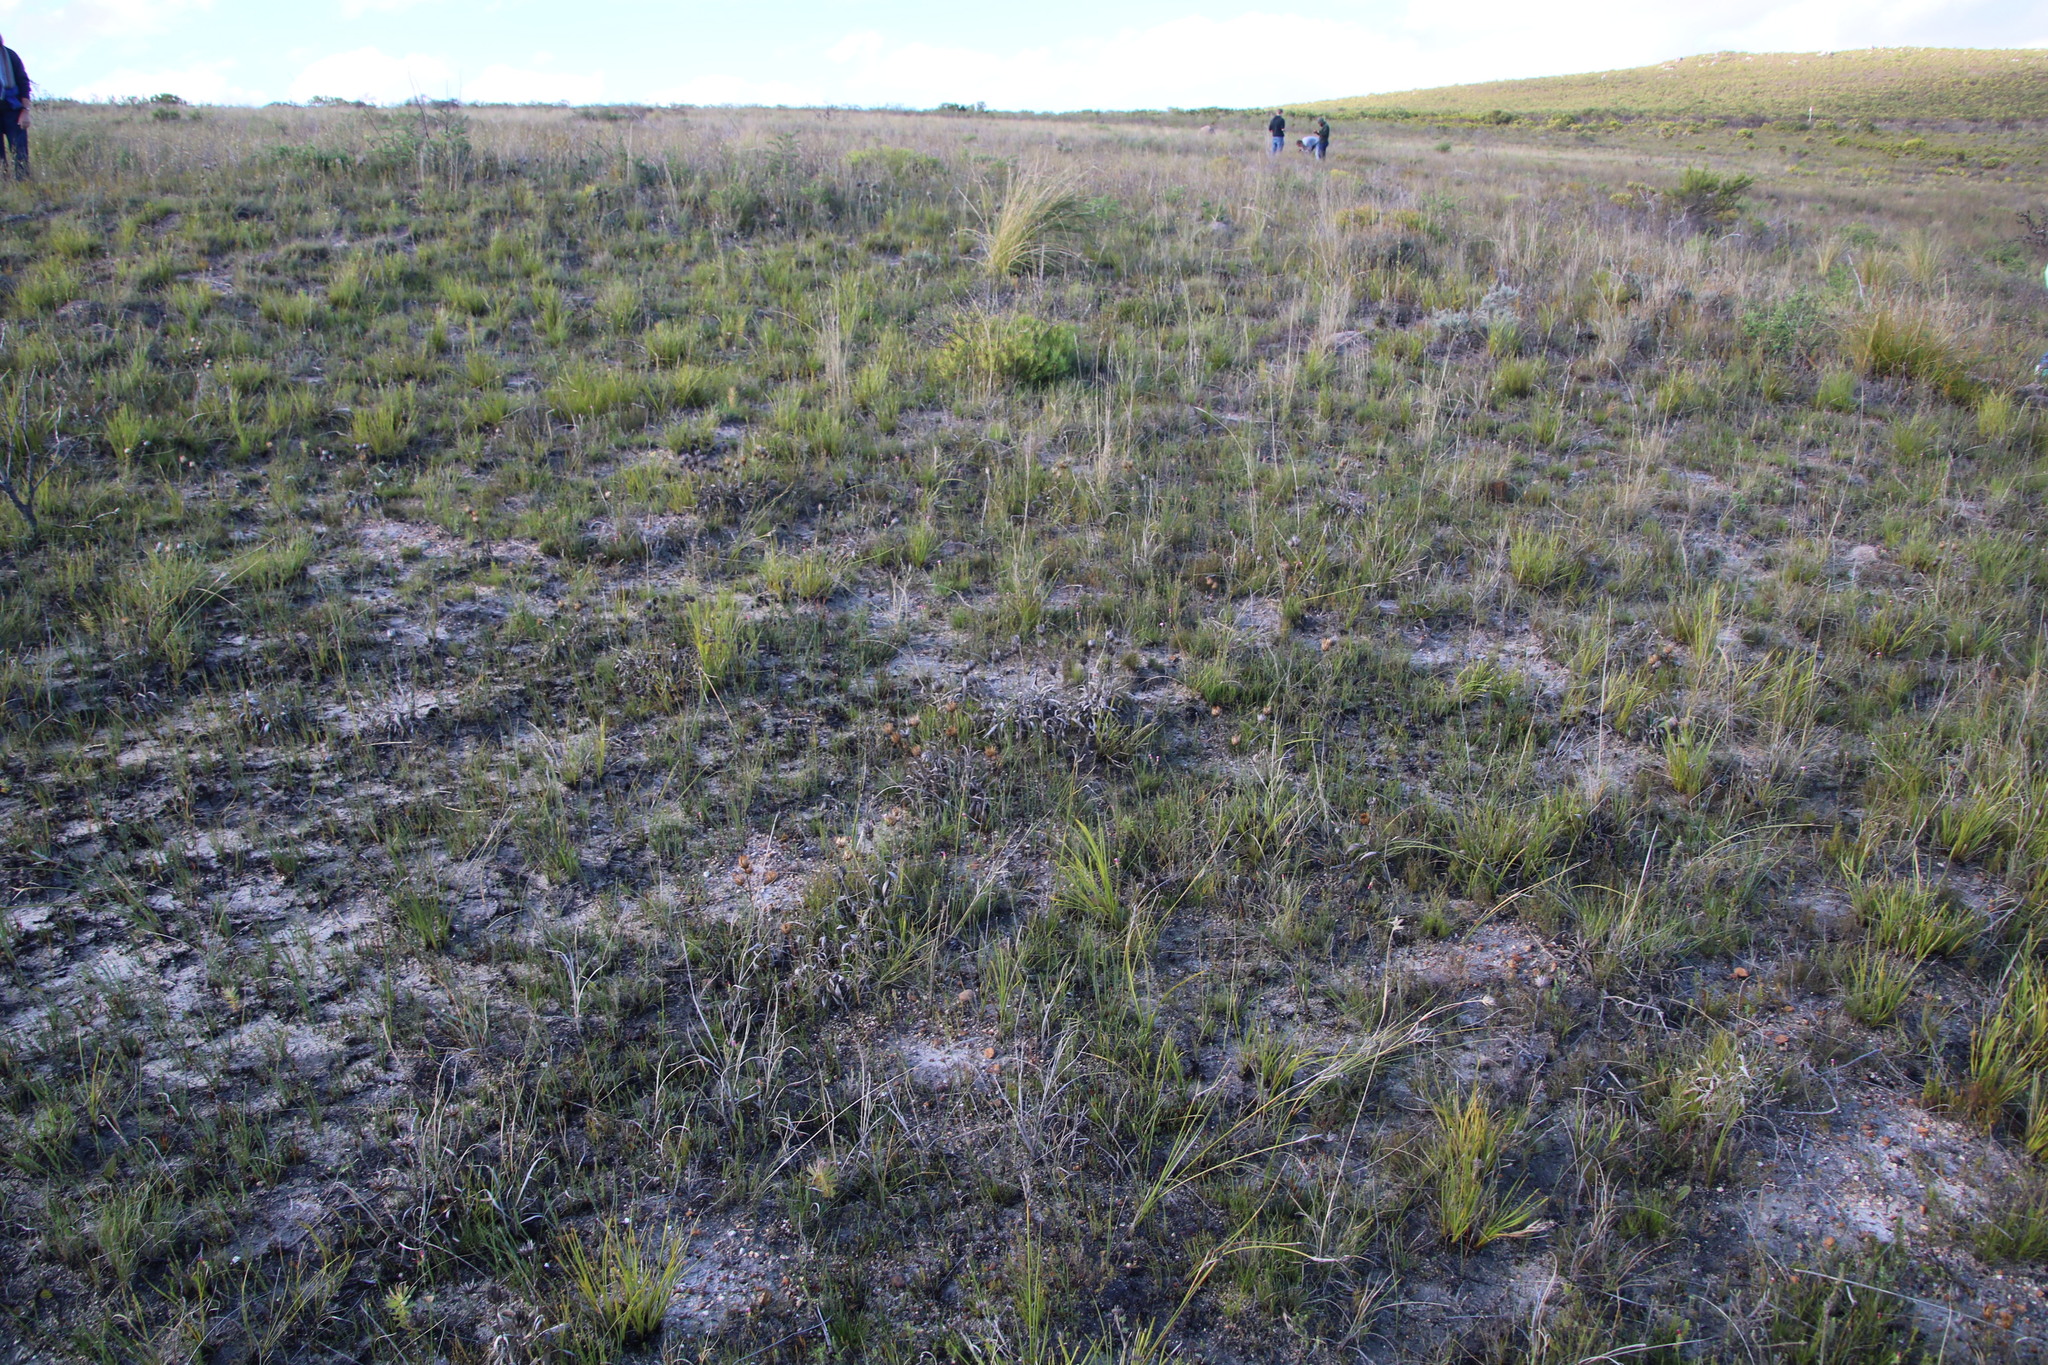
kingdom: Plantae
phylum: Tracheophyta
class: Magnoliopsida
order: Asterales
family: Asteraceae
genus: Berkheya
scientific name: Berkheya armata
